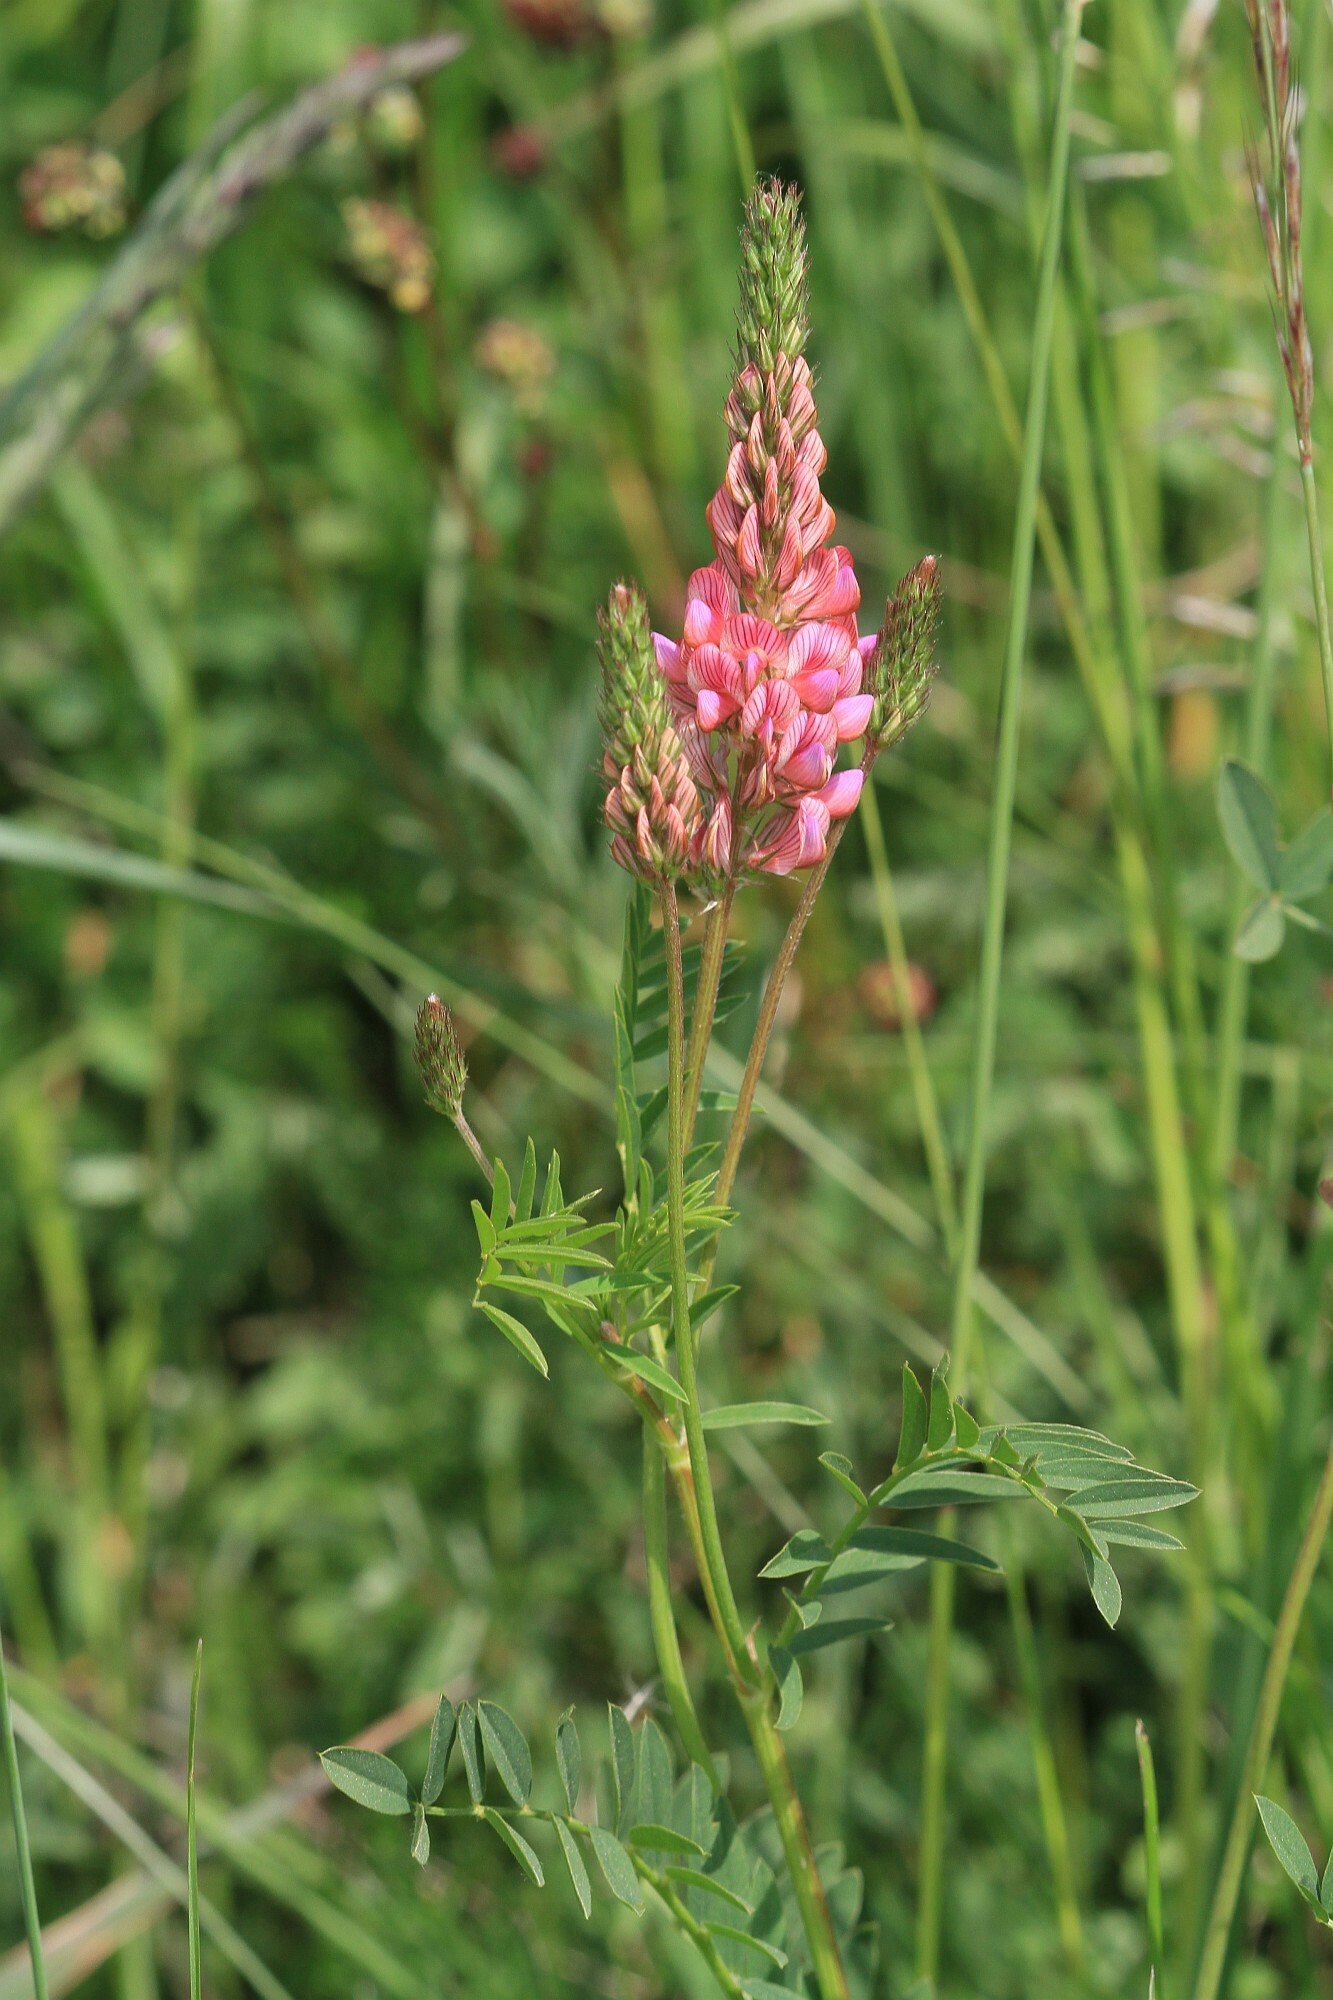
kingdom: Plantae
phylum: Tracheophyta
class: Magnoliopsida
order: Fabales
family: Fabaceae
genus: Onobrychis
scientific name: Onobrychis viciifolia
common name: Sainfoin
